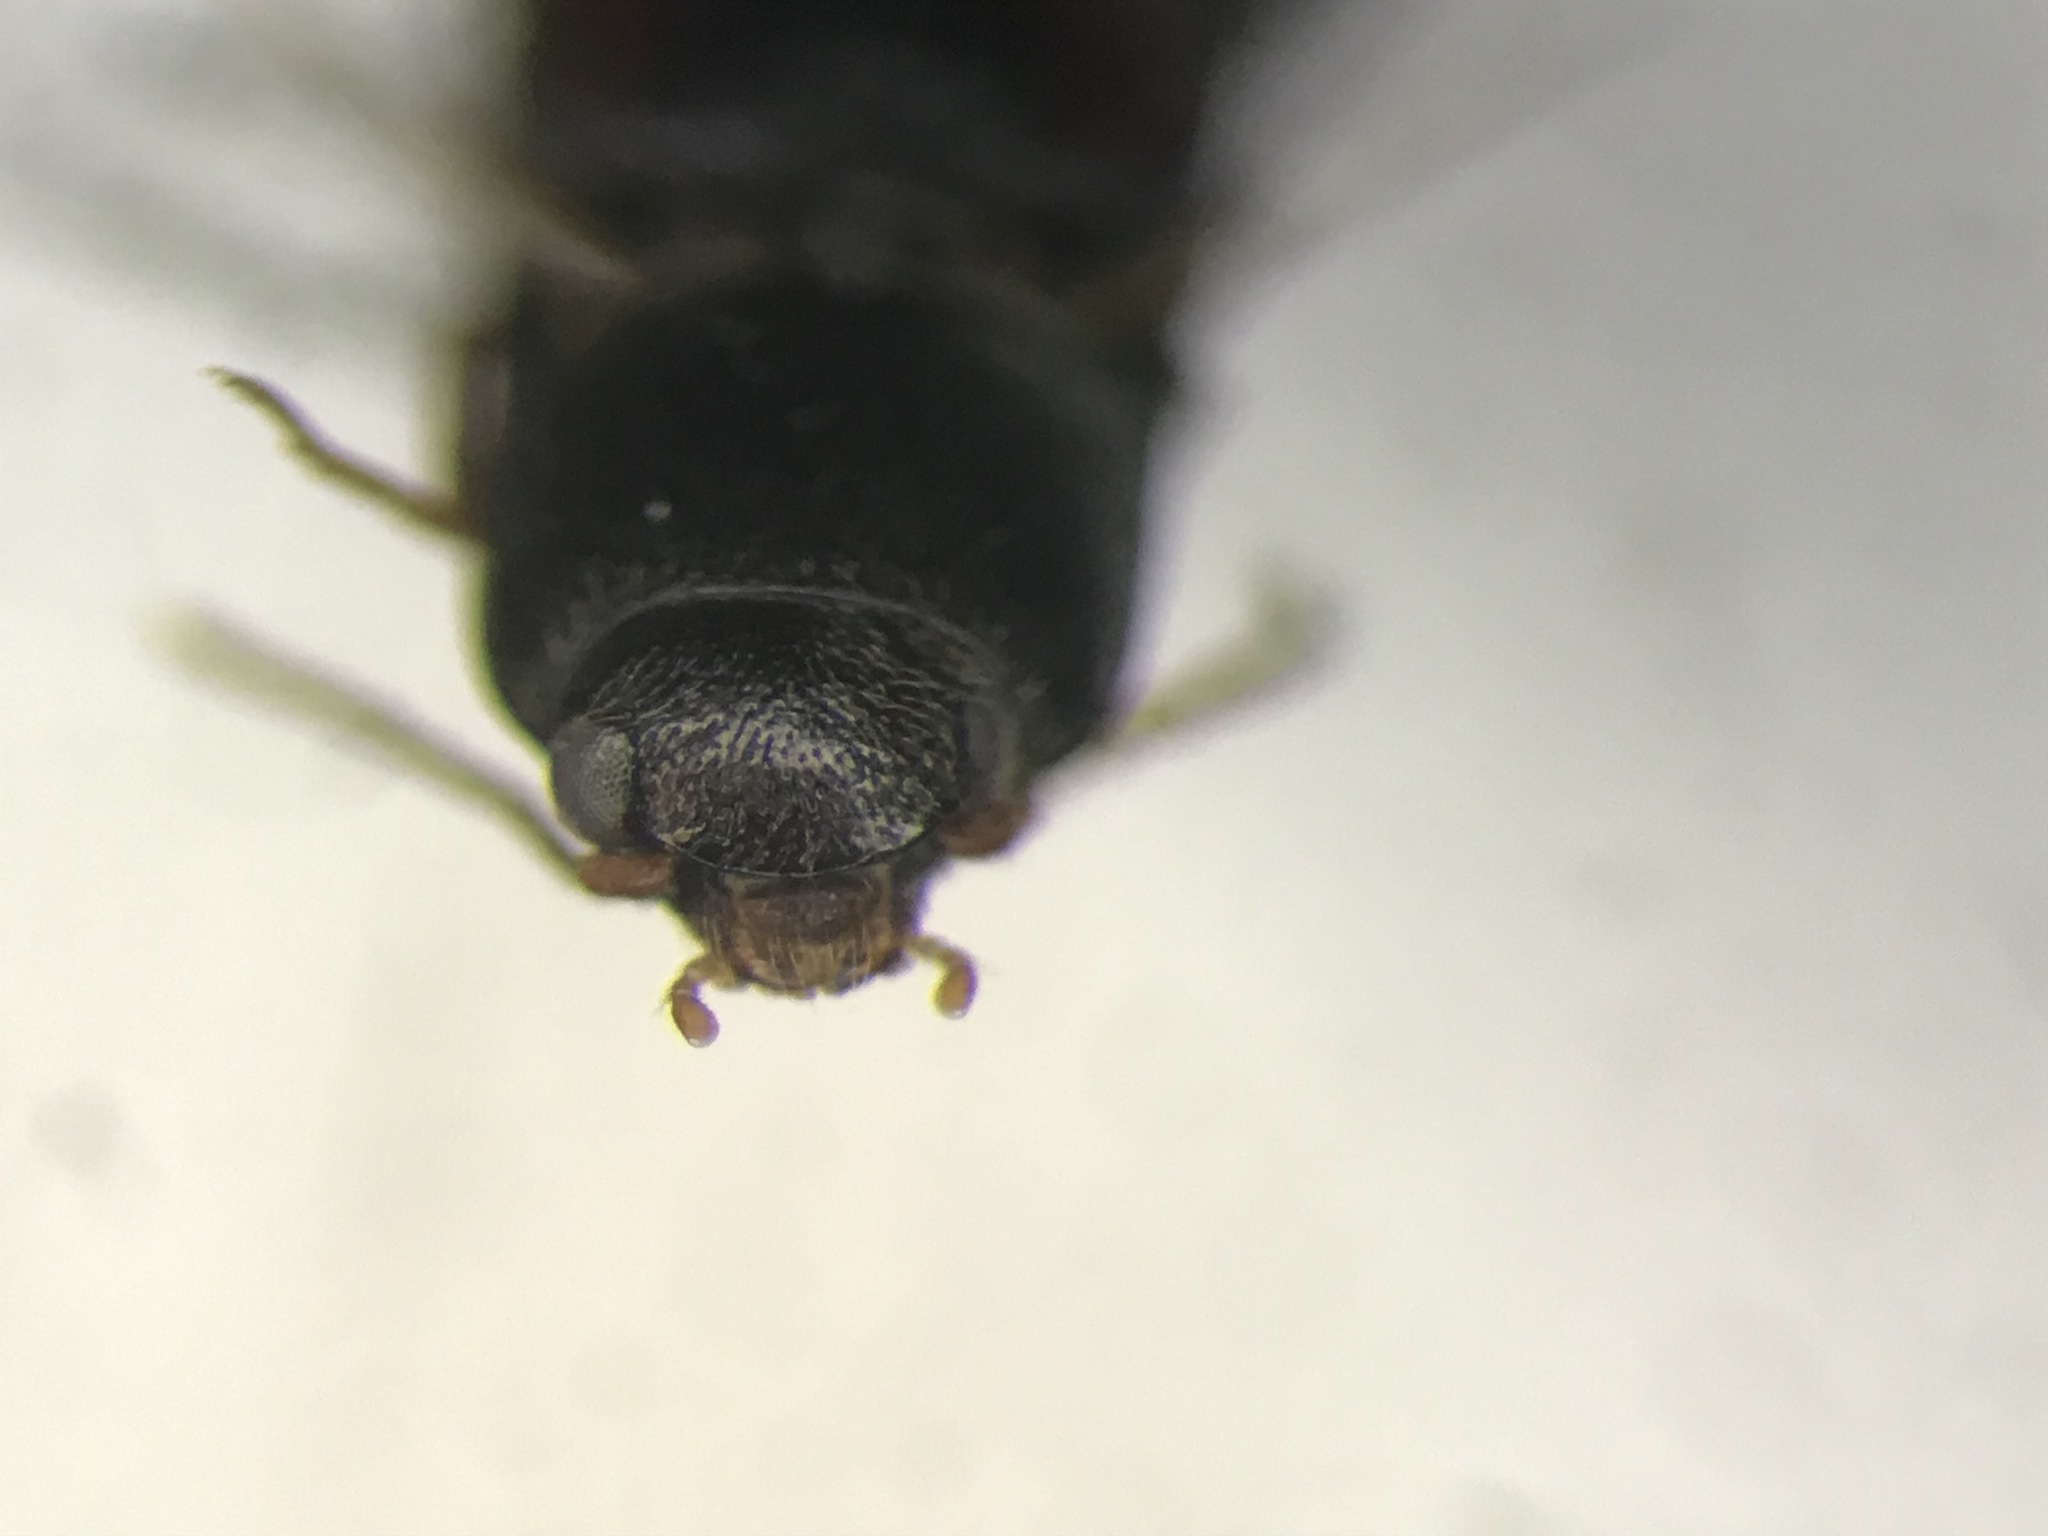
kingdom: Animalia
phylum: Arthropoda
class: Insecta
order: Coleoptera
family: Elateridae
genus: Idolus
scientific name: Idolus debilis
